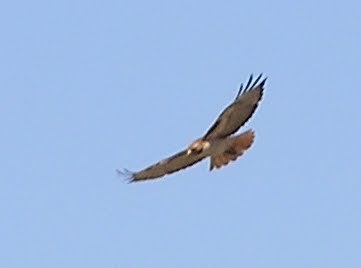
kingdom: Animalia
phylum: Chordata
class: Aves
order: Accipitriformes
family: Accipitridae
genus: Buteo
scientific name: Buteo jamaicensis
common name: Red-tailed hawk
